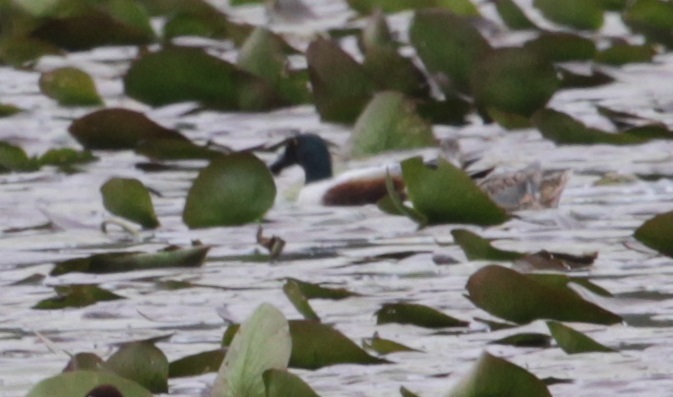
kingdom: Animalia
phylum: Chordata
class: Aves
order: Anseriformes
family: Anatidae
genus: Spatula
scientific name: Spatula clypeata
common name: Northern shoveler
